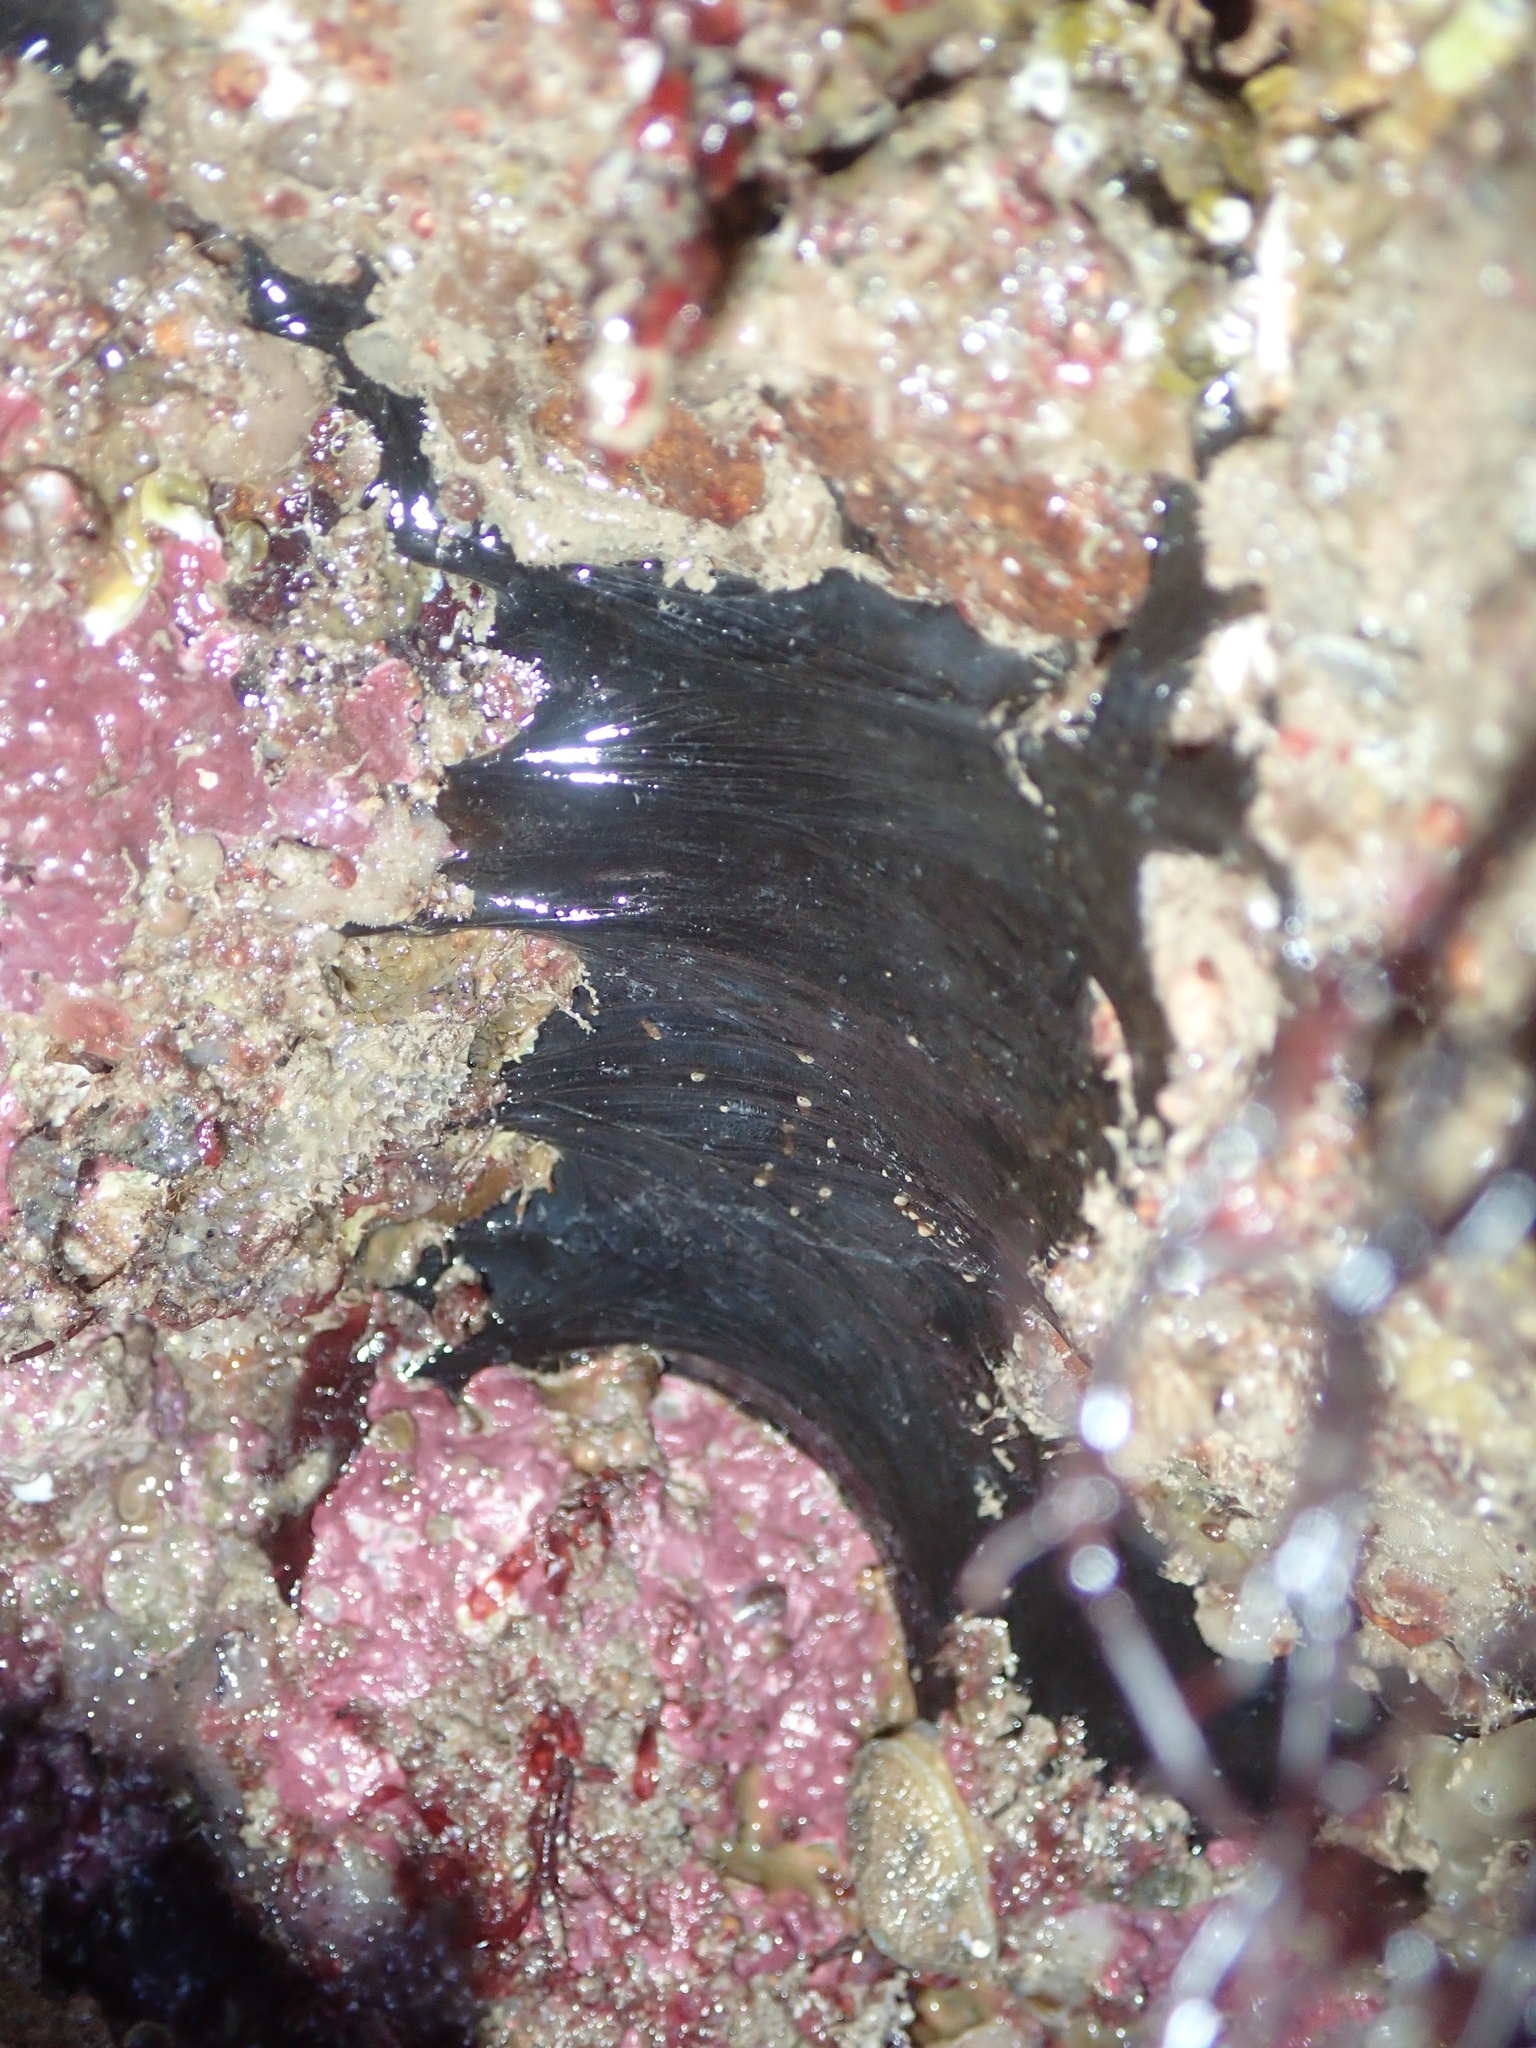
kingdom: Animalia
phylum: Porifera
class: Demospongiae
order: Tetractinellida
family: Ancorinidae
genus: Dercitus
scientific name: Dercitus bucklandi
